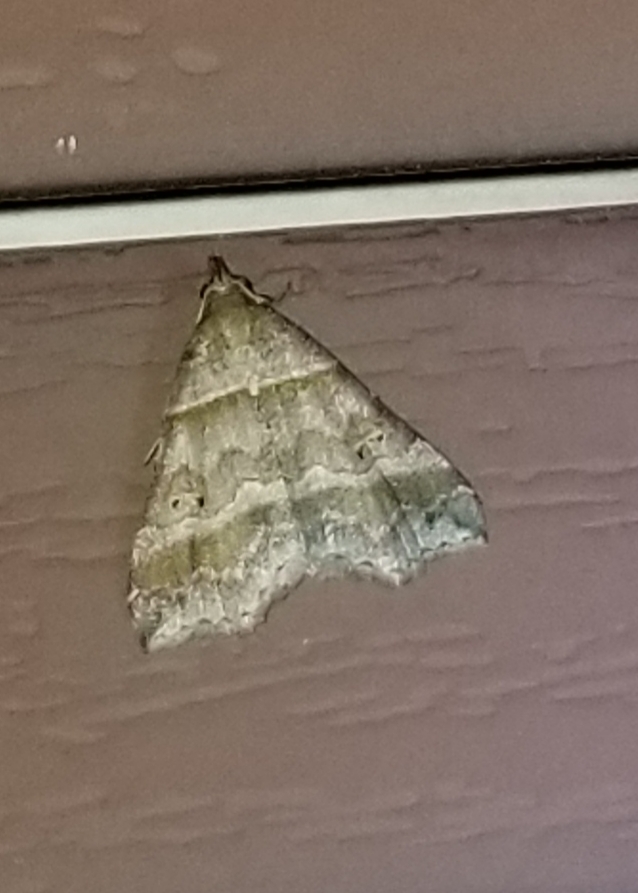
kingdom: Animalia
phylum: Arthropoda
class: Insecta
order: Lepidoptera
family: Erebidae
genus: Phaeolita
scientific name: Phaeolita pyramusalis
